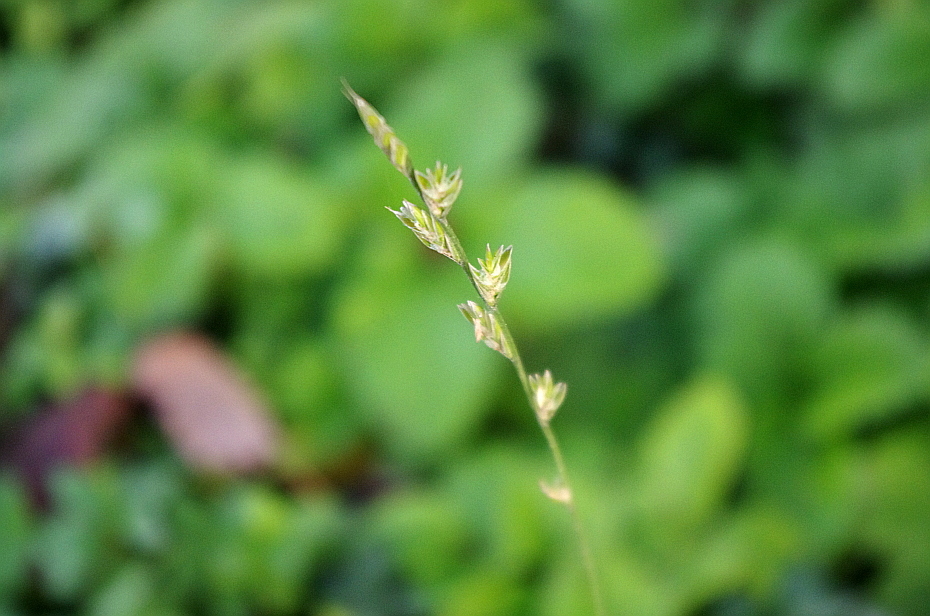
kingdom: Plantae
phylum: Tracheophyta
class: Liliopsida
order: Poales
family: Poaceae
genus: Lolium
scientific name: Lolium perenne
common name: Perennial ryegrass
